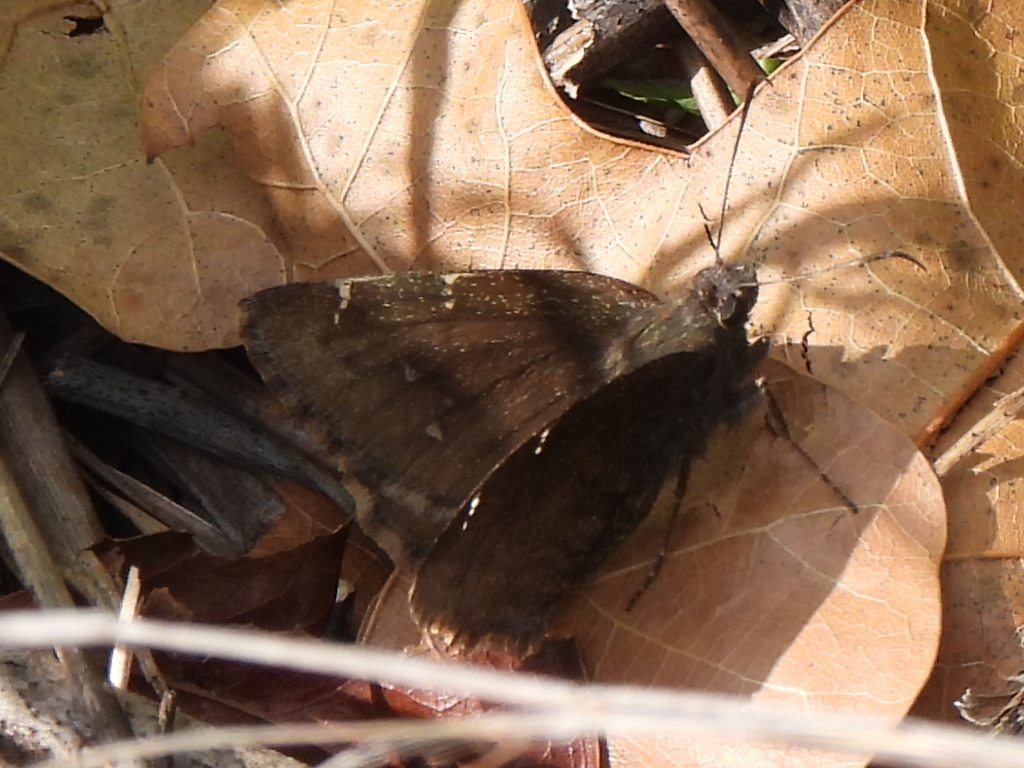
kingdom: Animalia
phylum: Arthropoda
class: Insecta
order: Lepidoptera
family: Hesperiidae
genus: Thorybes
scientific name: Thorybes pylades
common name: Northern cloudywing
